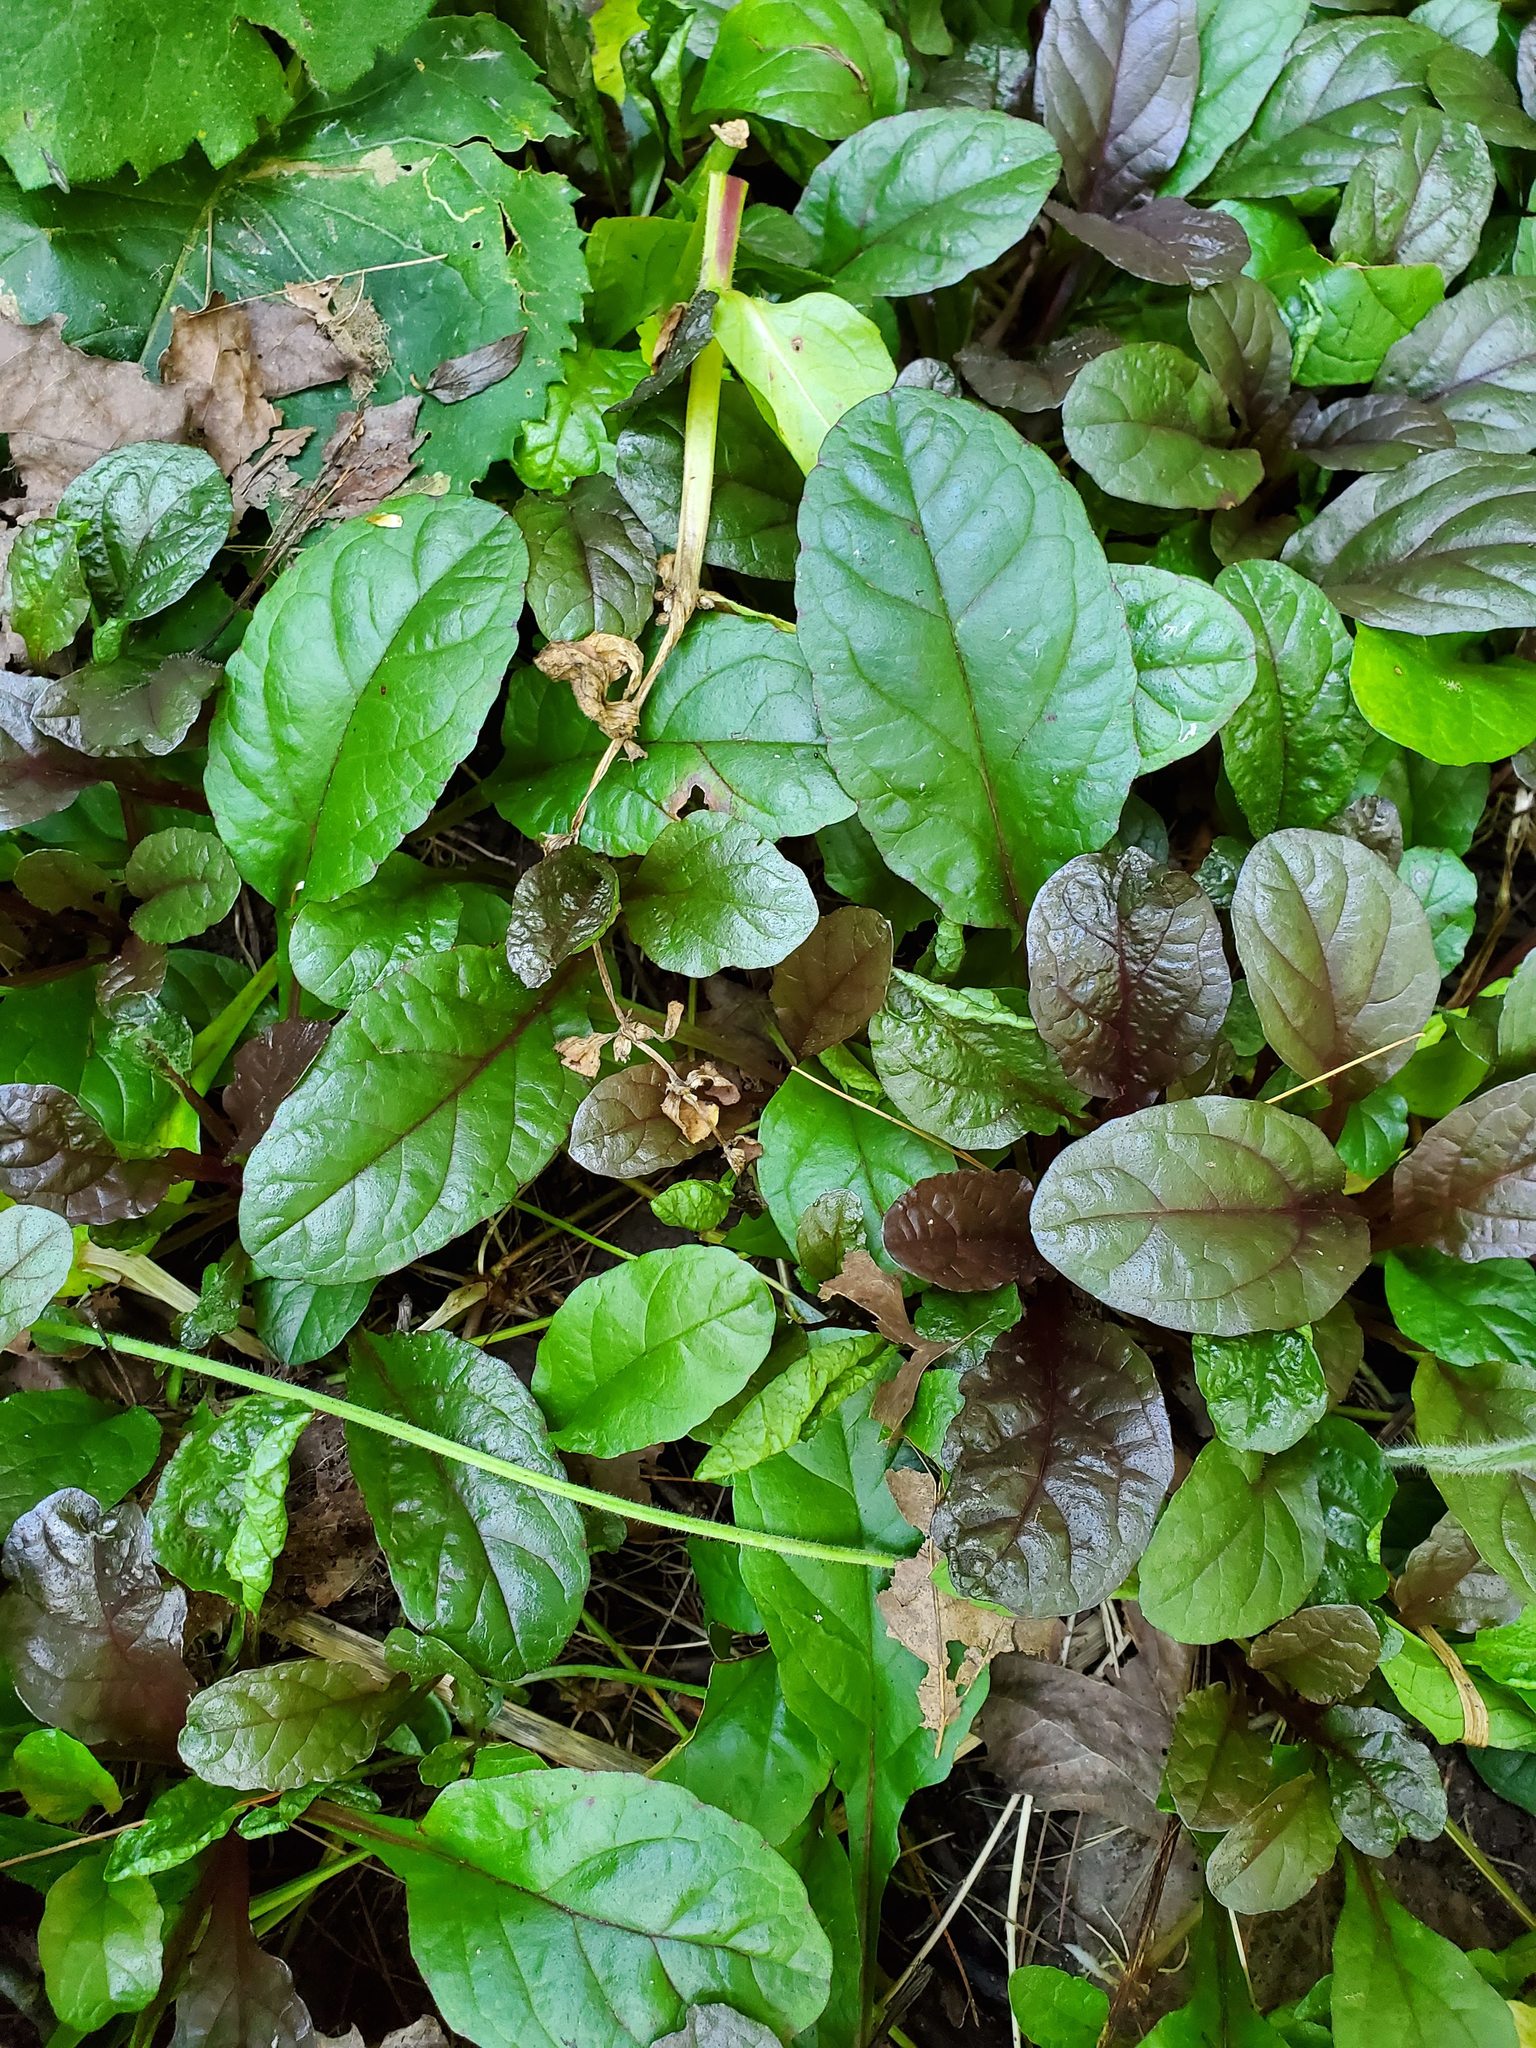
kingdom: Plantae
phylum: Tracheophyta
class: Magnoliopsida
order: Lamiales
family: Lamiaceae
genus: Ajuga
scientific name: Ajuga reptans
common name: Bugle
